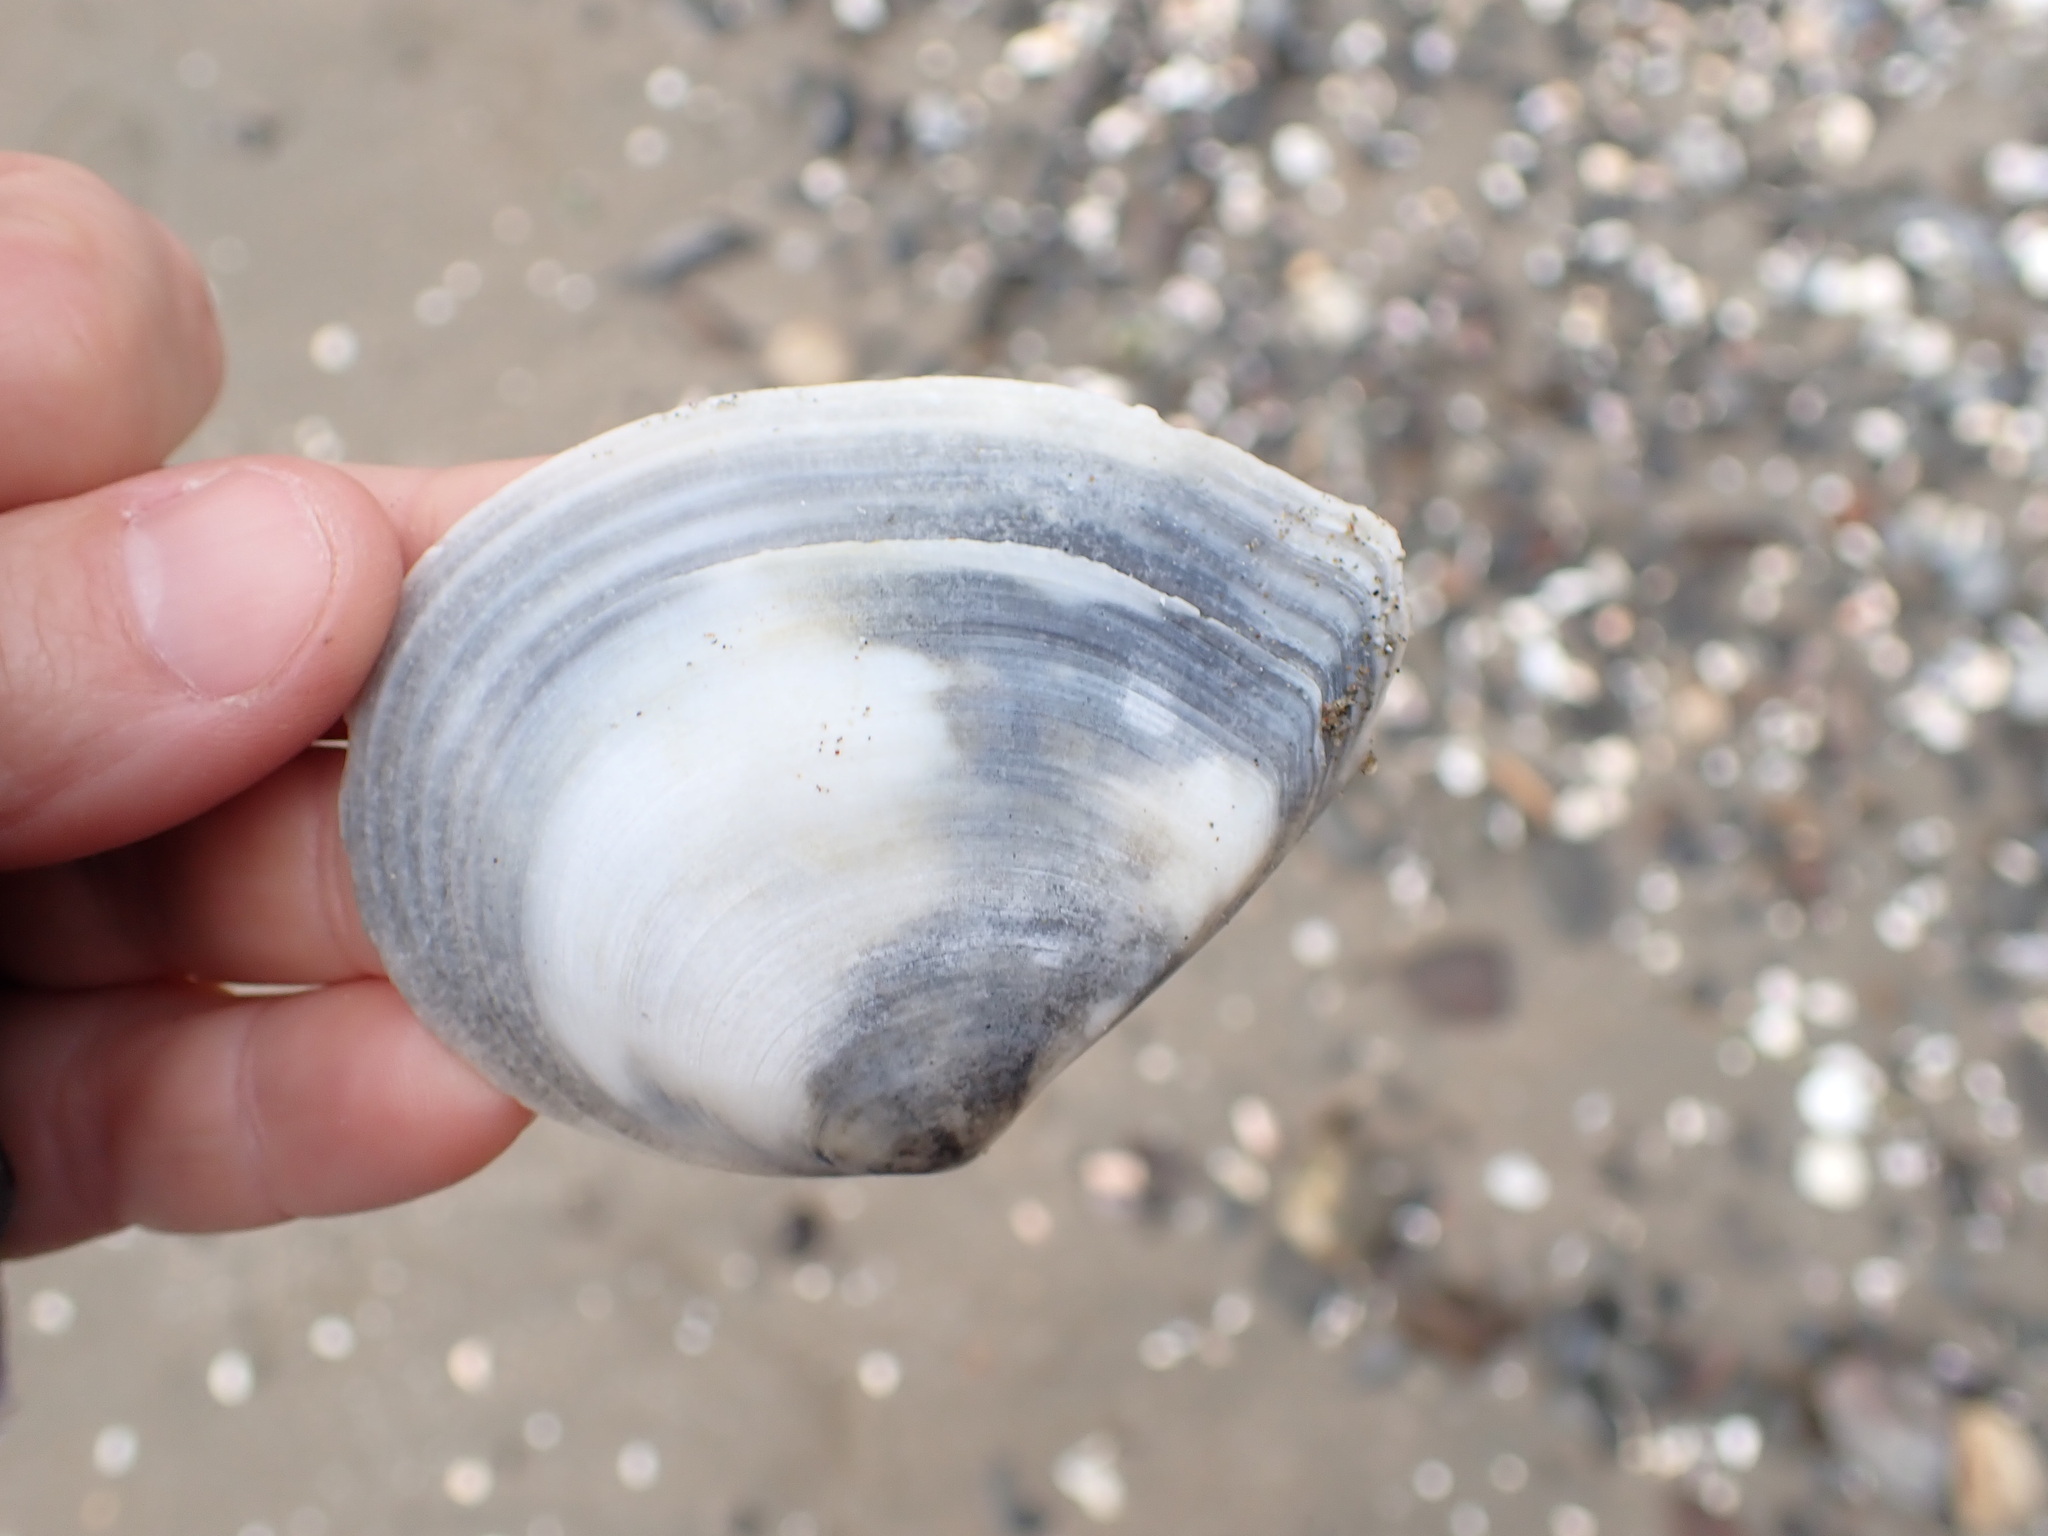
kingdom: Animalia
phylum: Mollusca
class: Bivalvia
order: Cardiida
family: Tellinidae
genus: Macomona
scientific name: Macomona liliana
